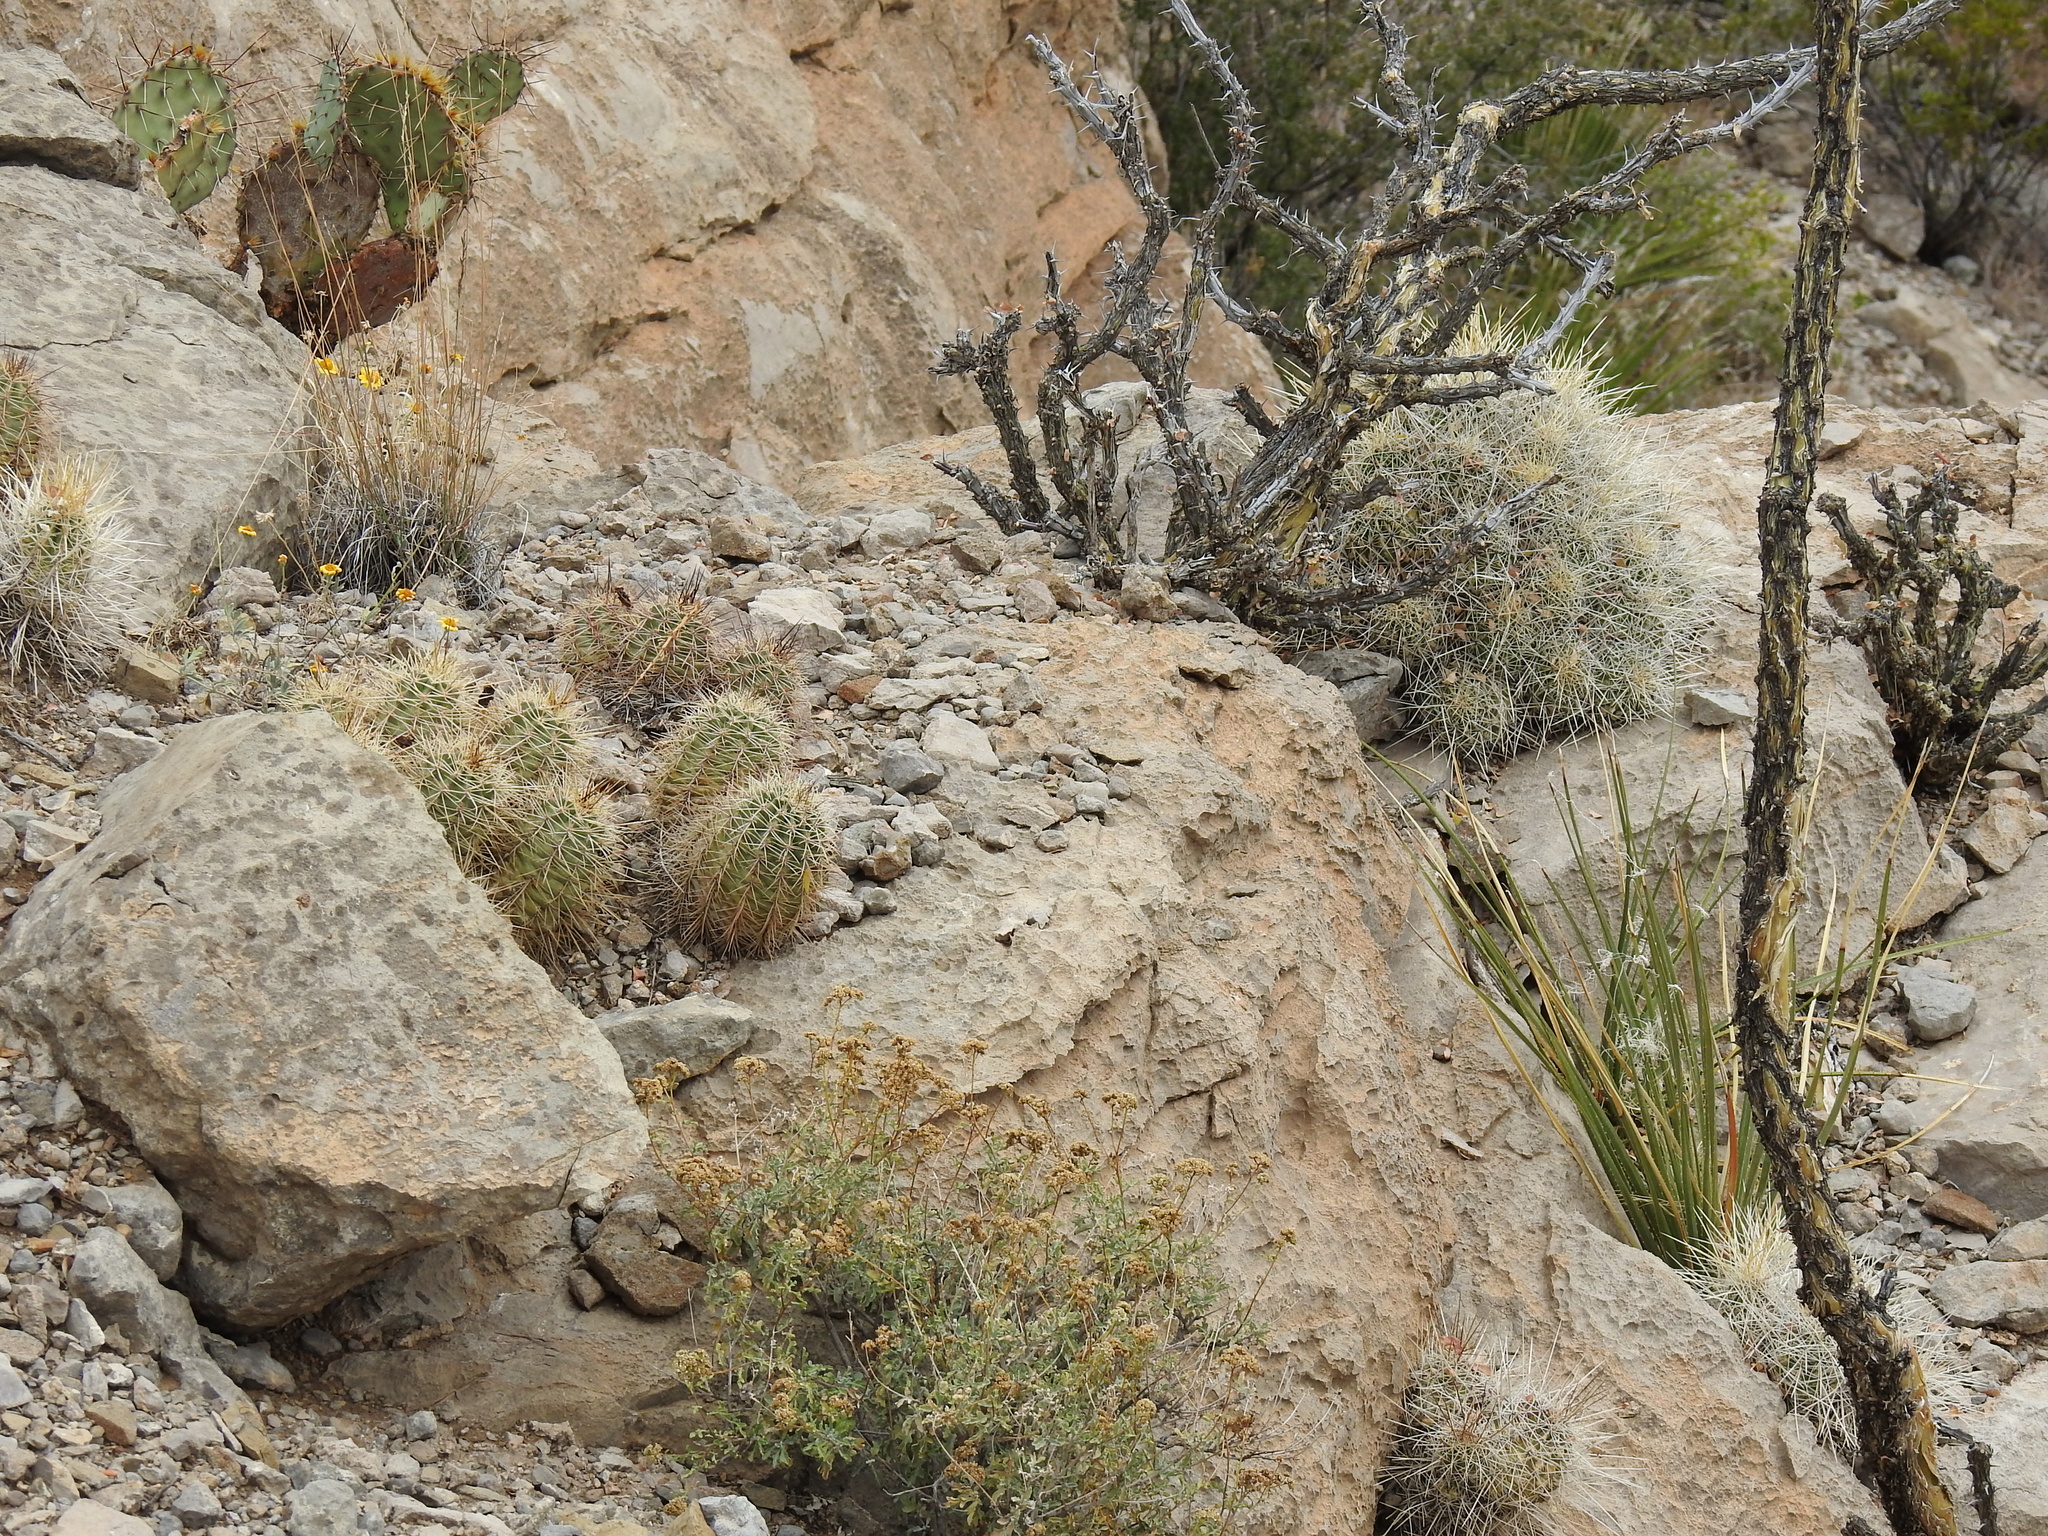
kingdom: Plantae
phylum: Tracheophyta
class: Magnoliopsida
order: Caryophyllales
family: Cactaceae
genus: Echinocereus
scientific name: Echinocereus coccineus
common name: Scarlet hedgehog cactus
